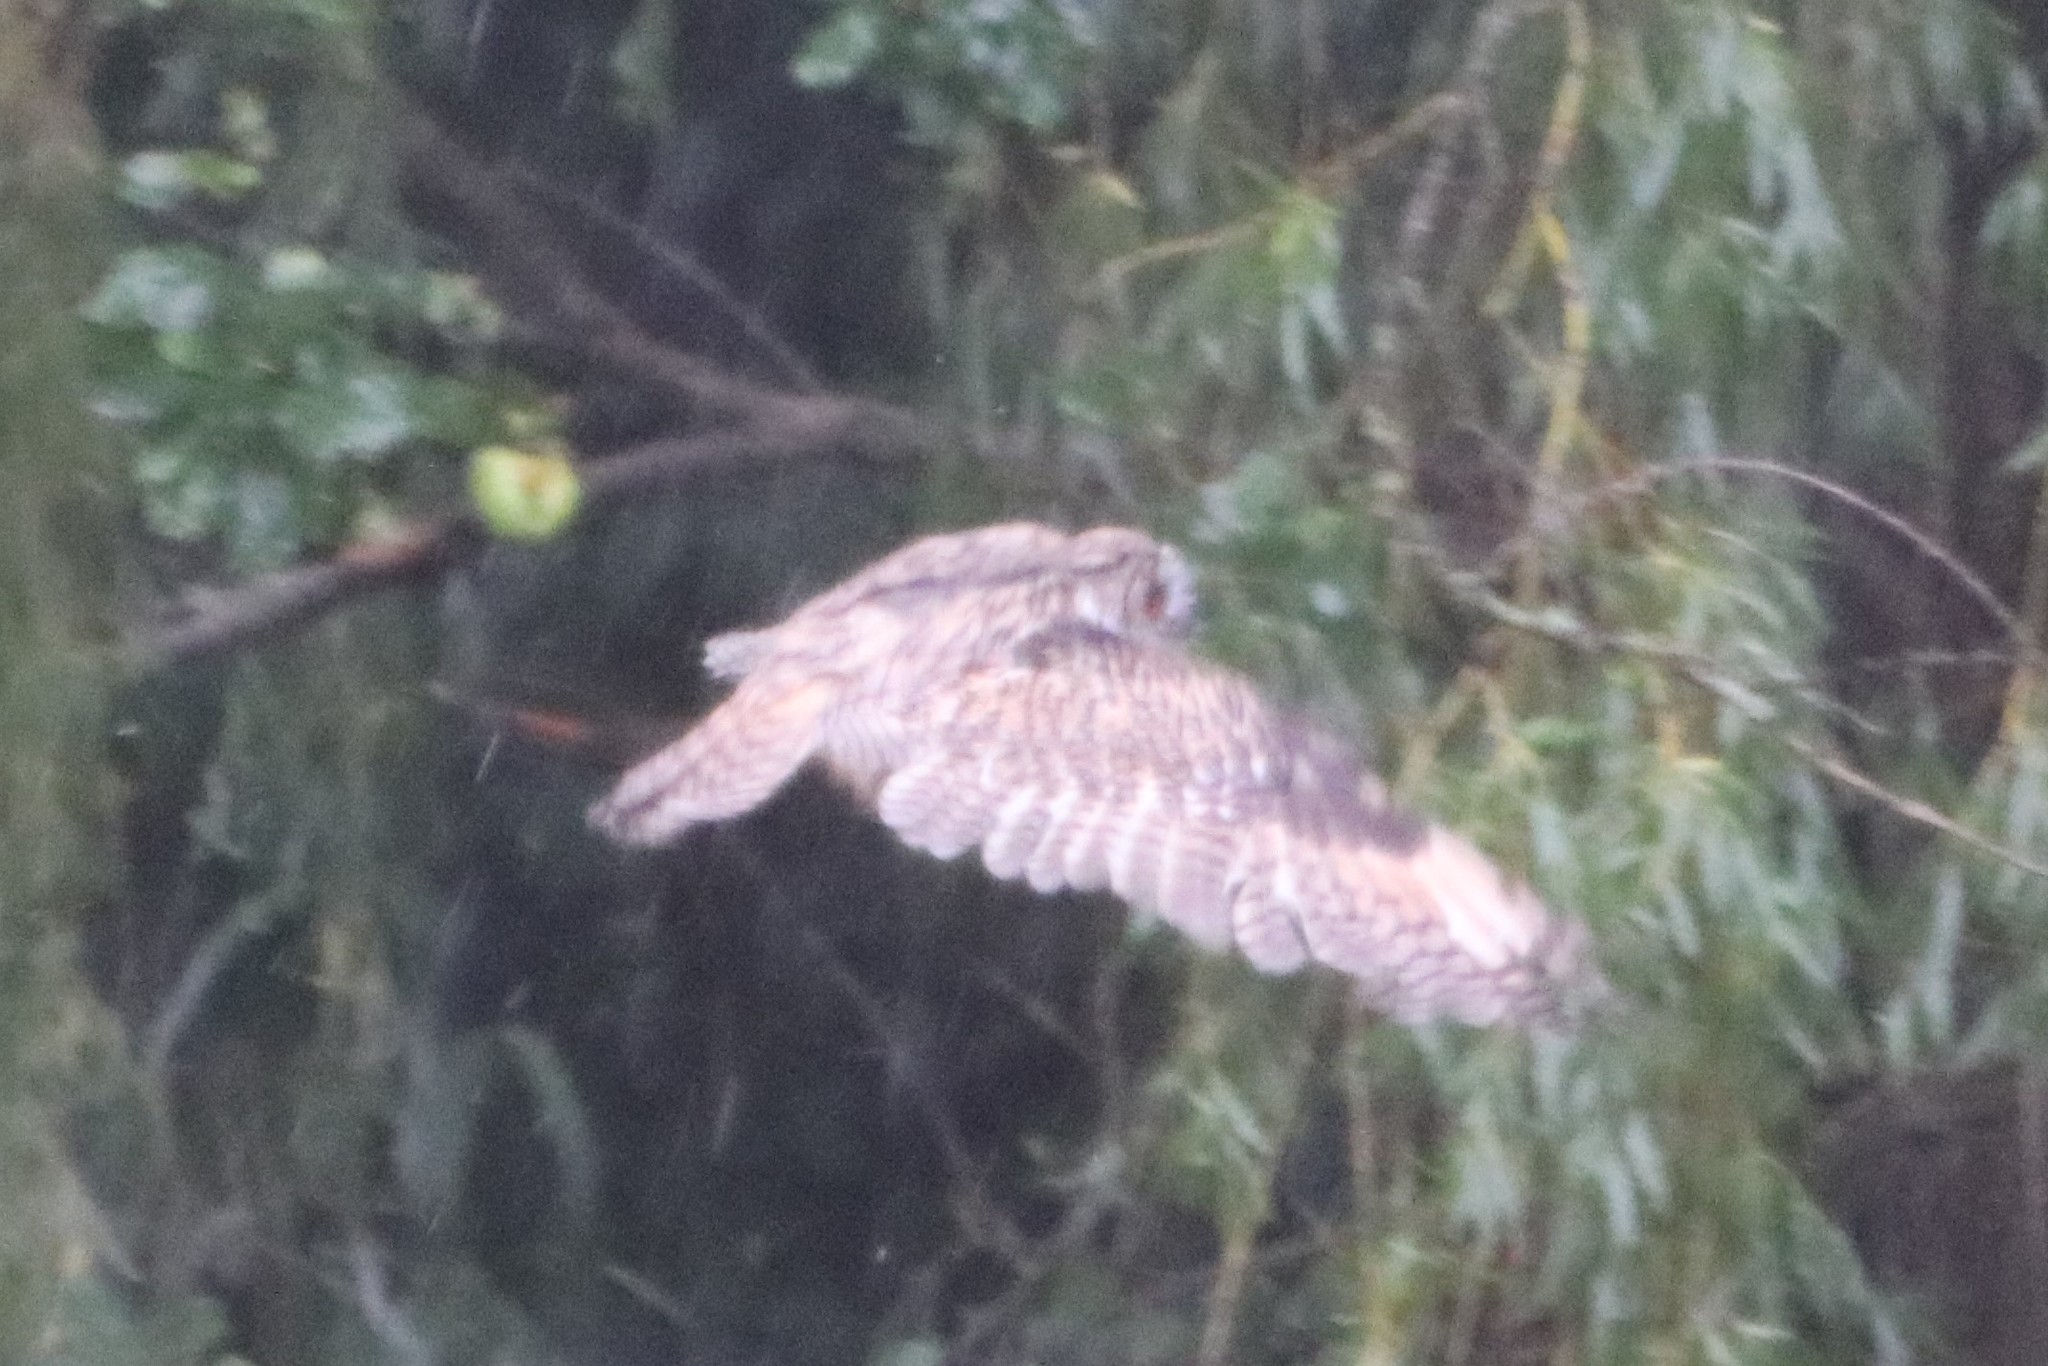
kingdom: Animalia
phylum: Chordata
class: Aves
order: Strigiformes
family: Strigidae
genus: Asio
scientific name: Asio otus
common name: Long-eared owl
